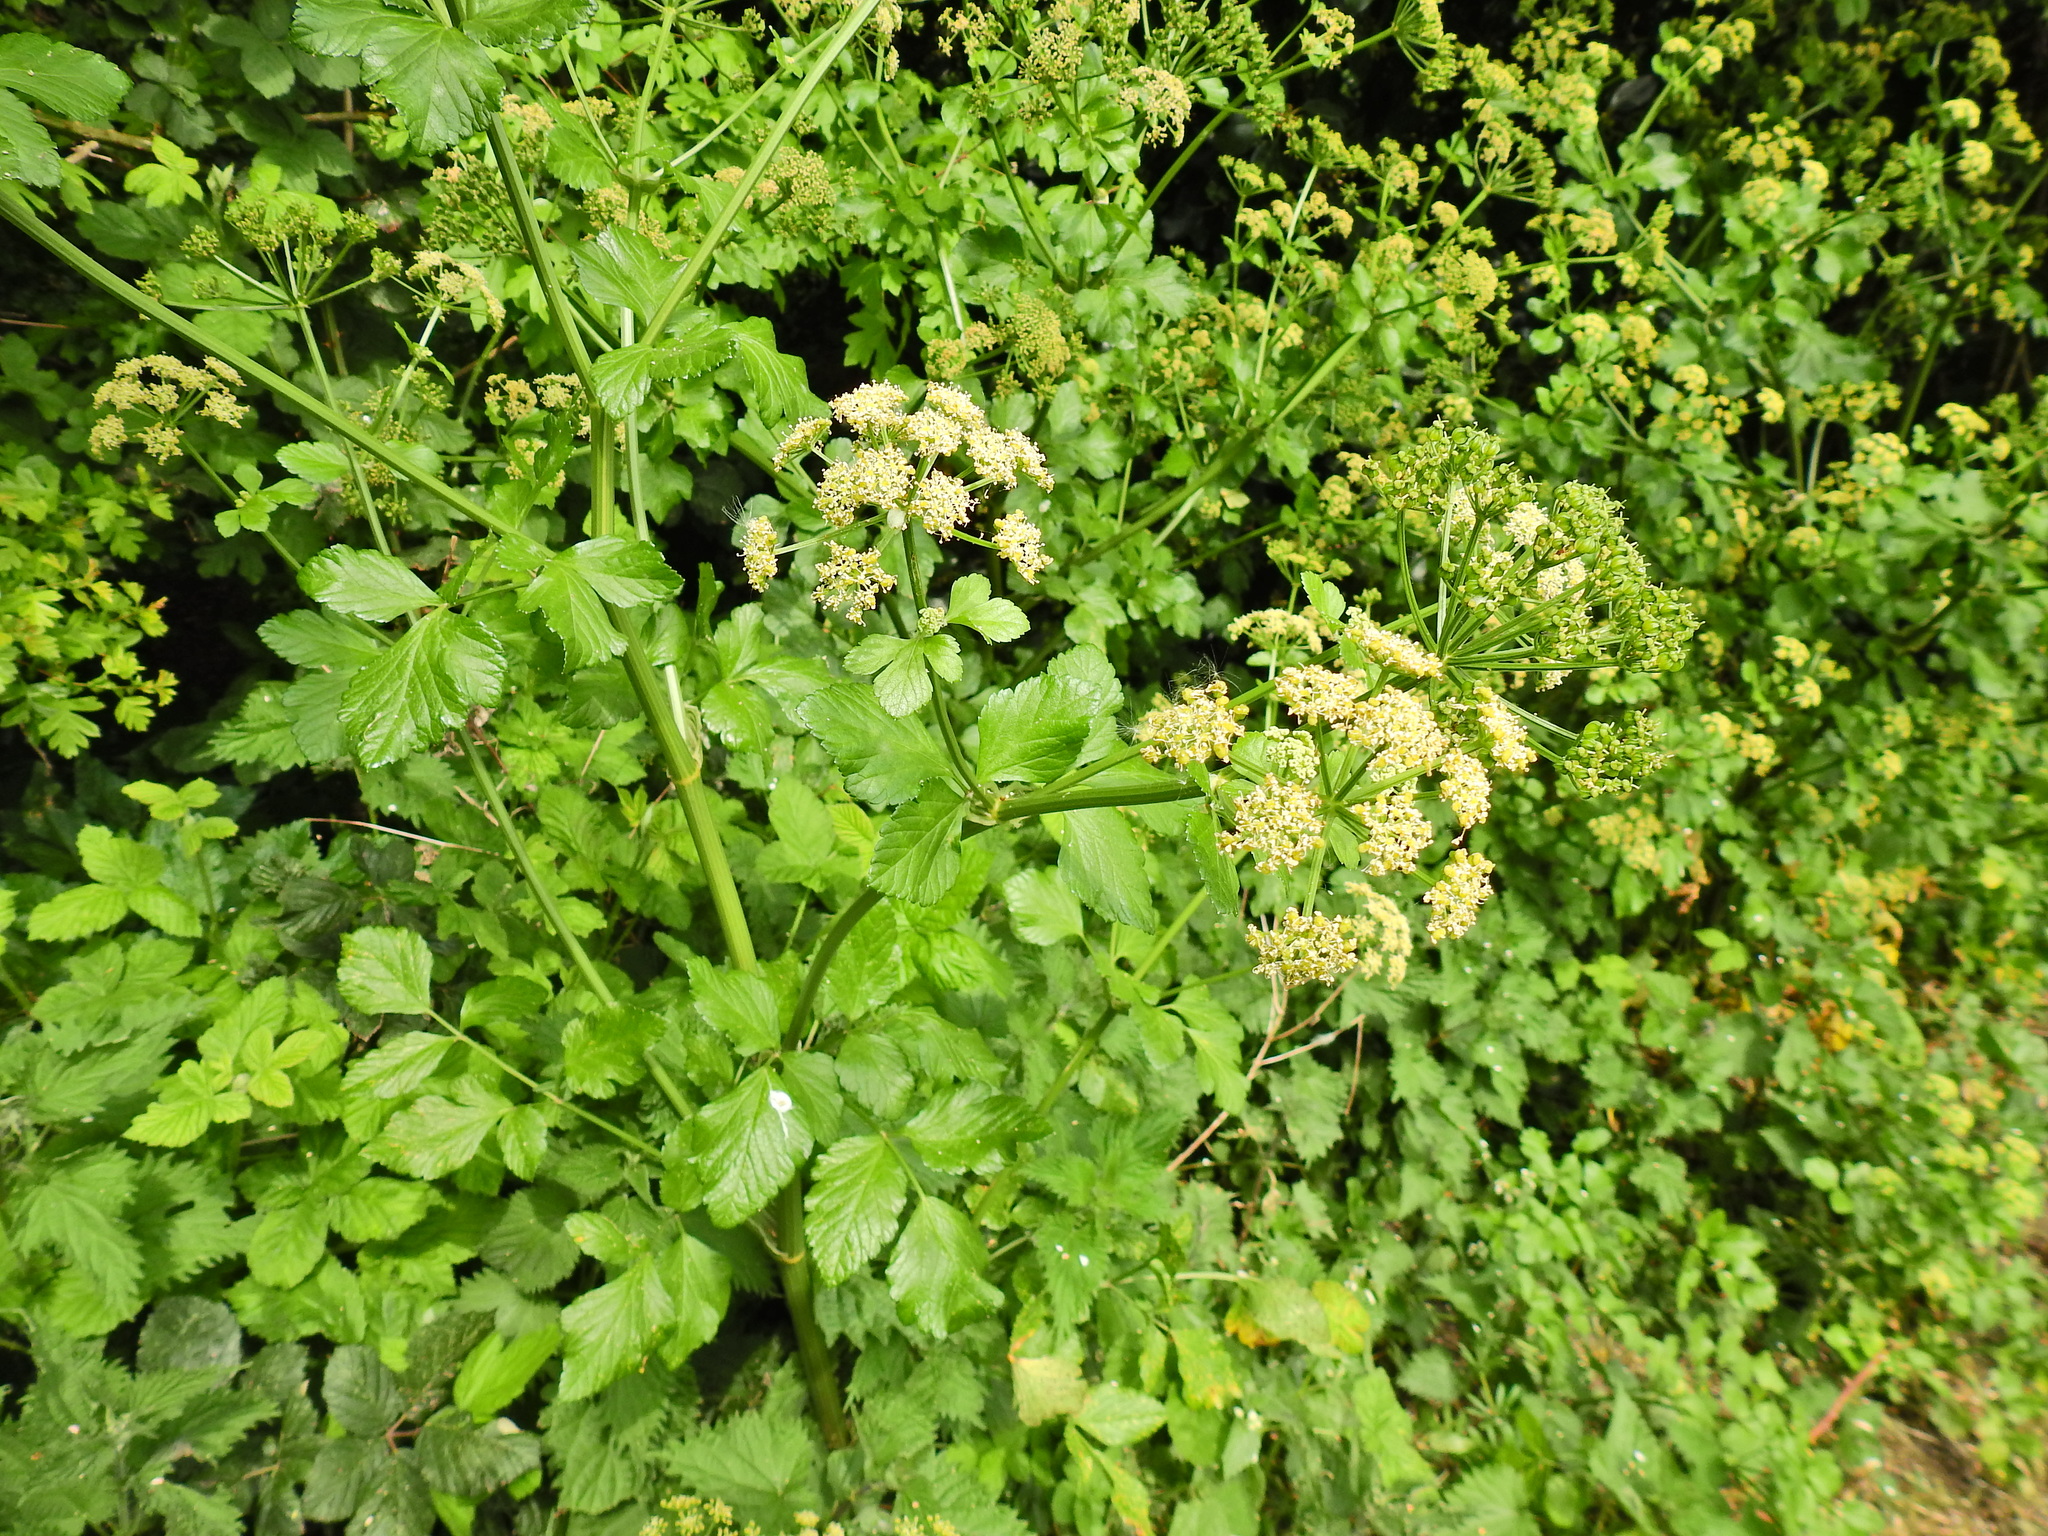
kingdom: Plantae
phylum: Tracheophyta
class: Magnoliopsida
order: Apiales
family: Apiaceae
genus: Smyrnium
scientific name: Smyrnium olusatrum
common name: Alexanders
